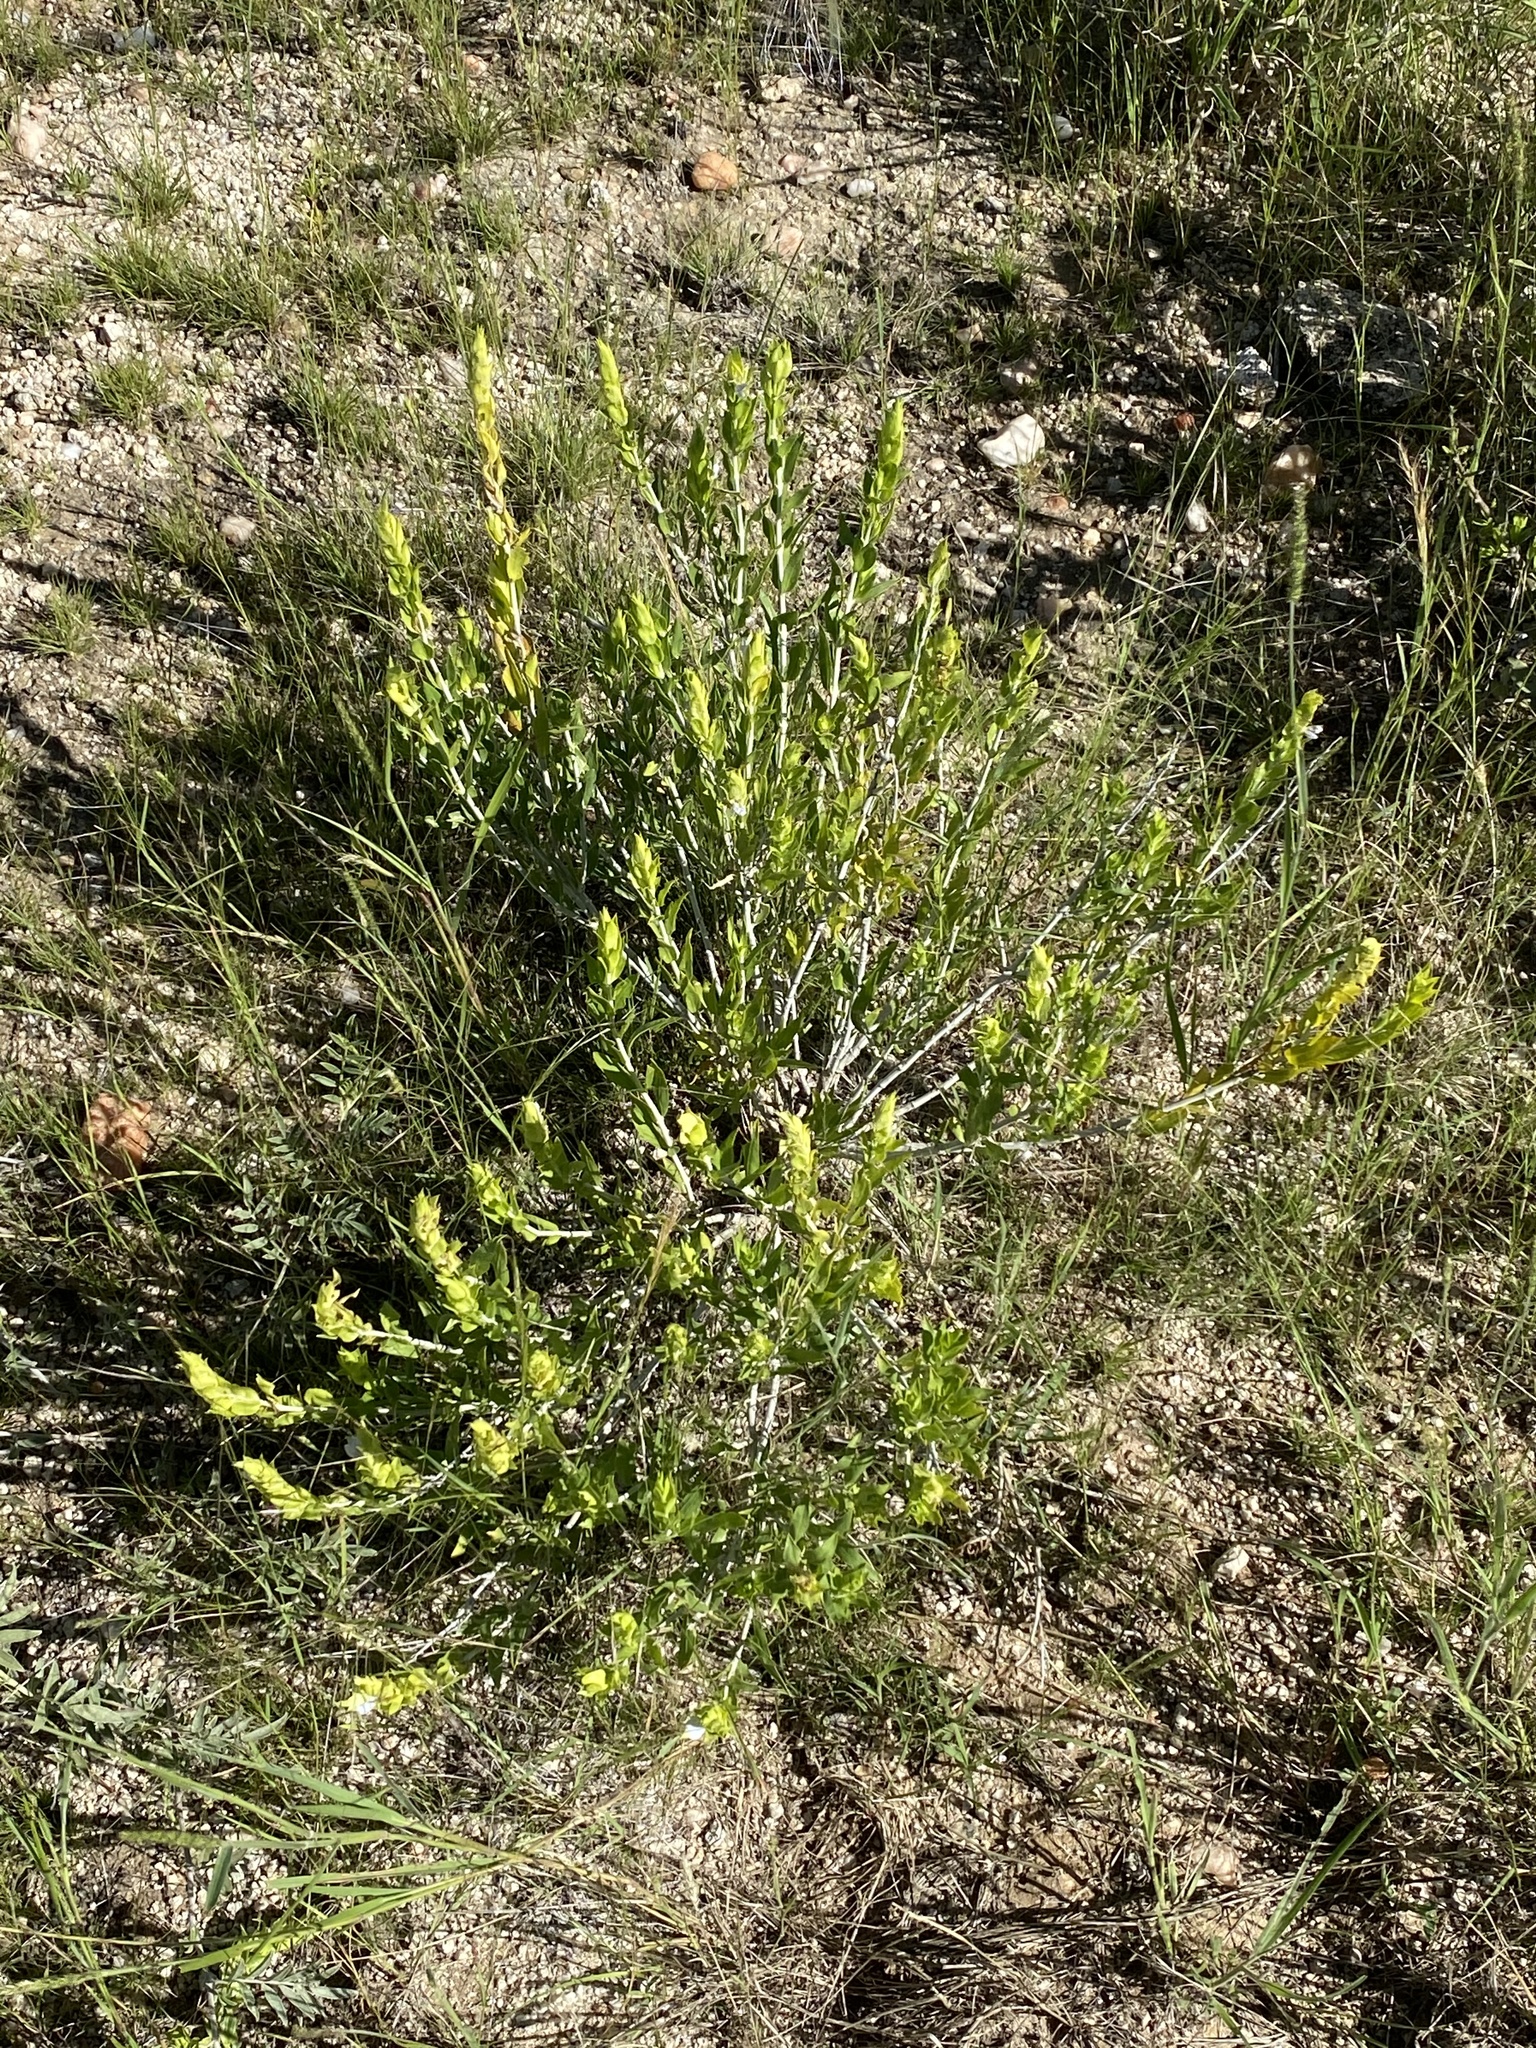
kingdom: Plantae
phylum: Tracheophyta
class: Magnoliopsida
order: Lamiales
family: Acanthaceae
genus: Monechma
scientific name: Monechma genistifolium
